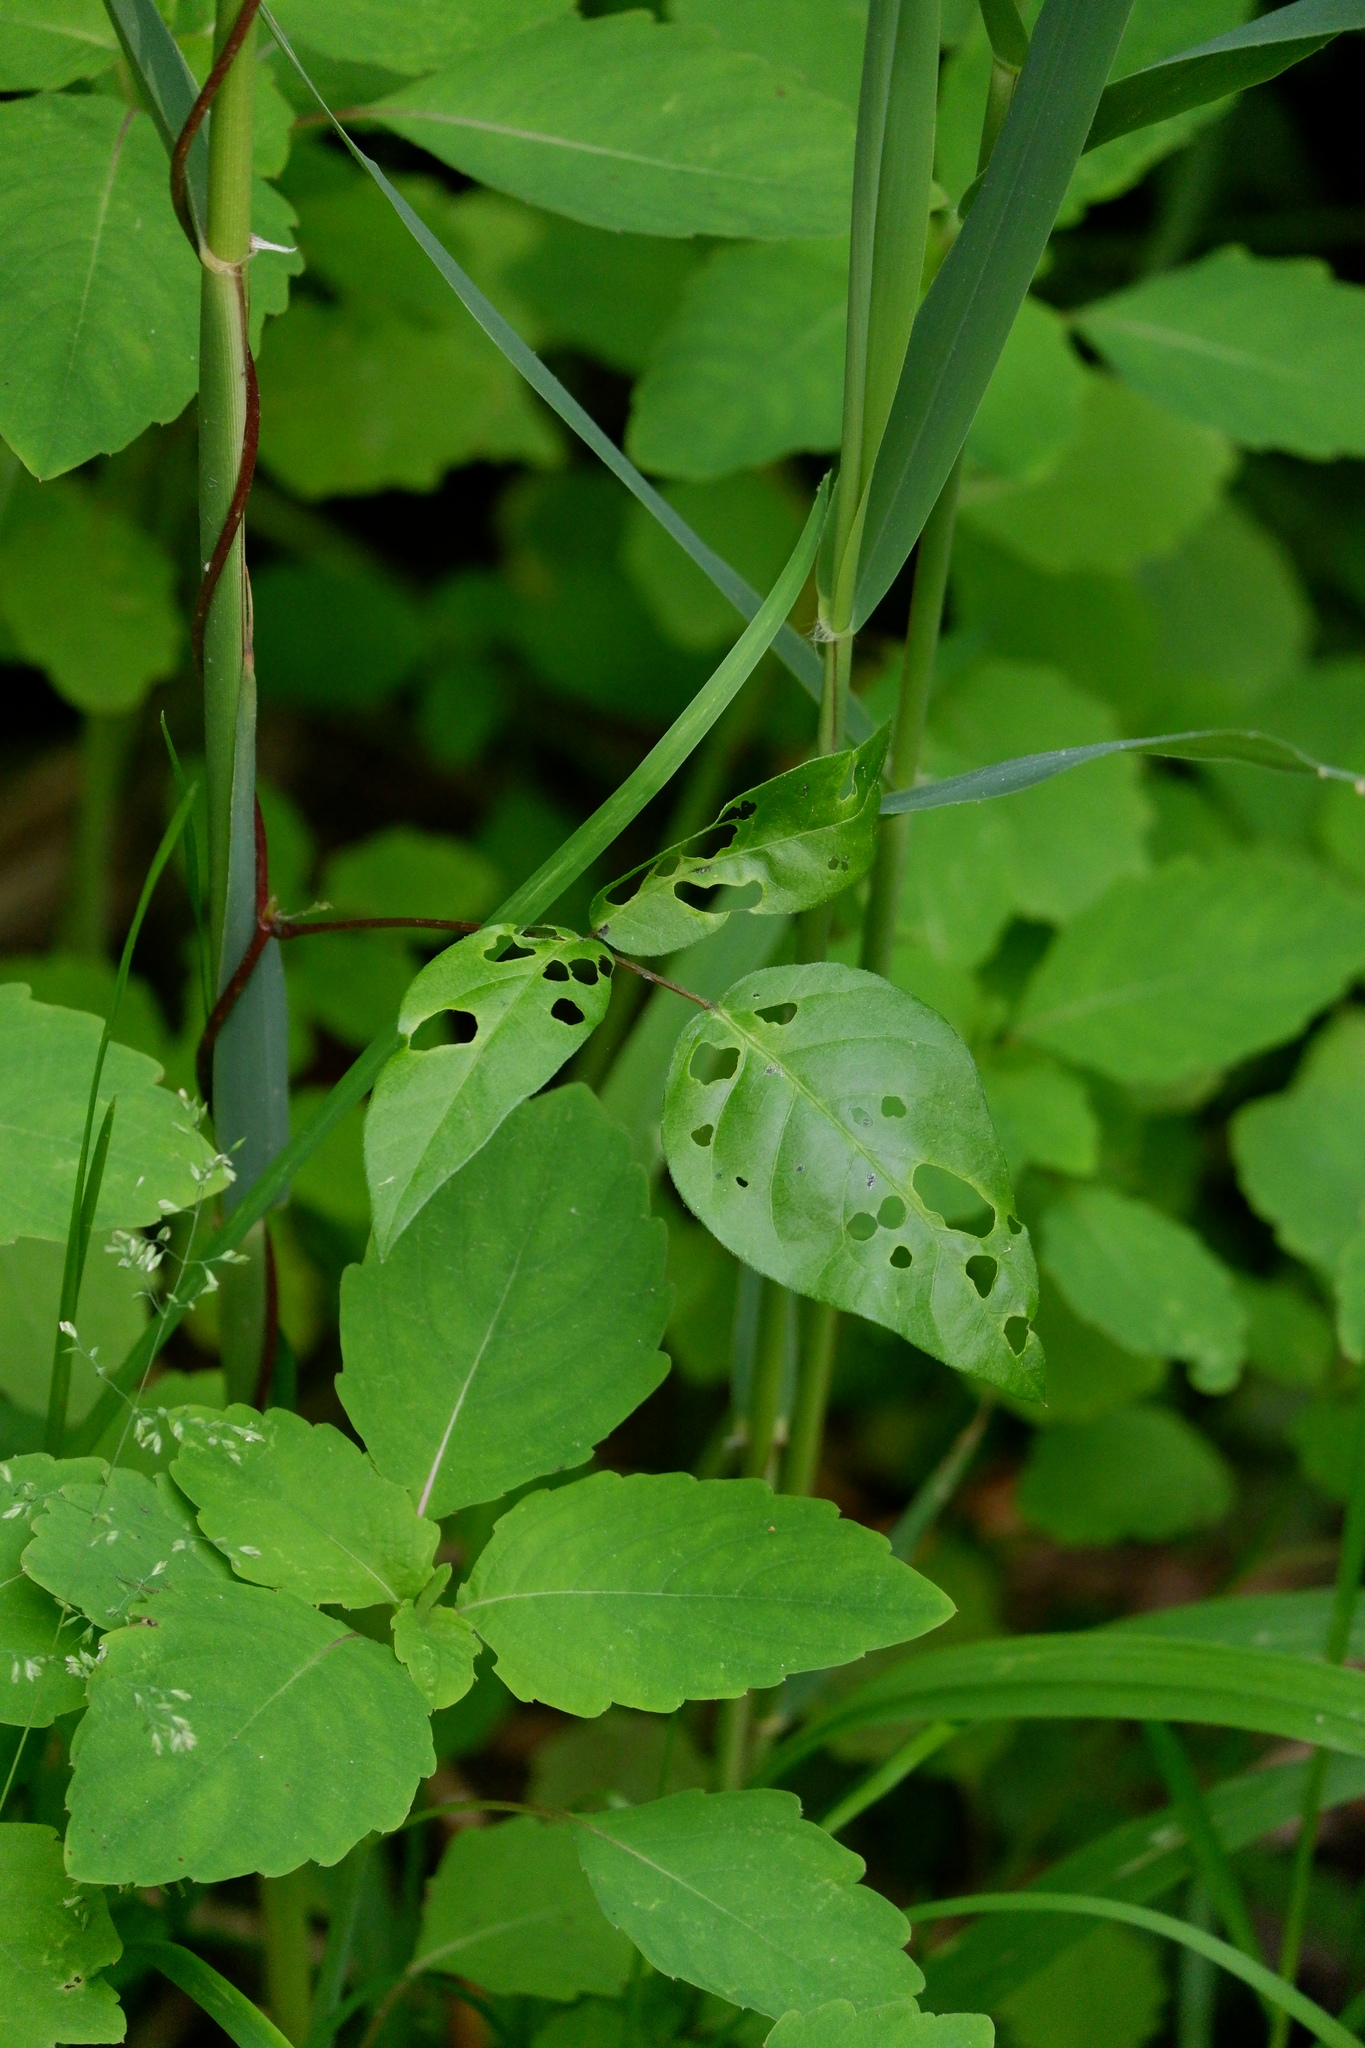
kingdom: Animalia
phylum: Arthropoda
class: Insecta
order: Coleoptera
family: Chrysomelidae
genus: Odontota
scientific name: Odontota scapularis
